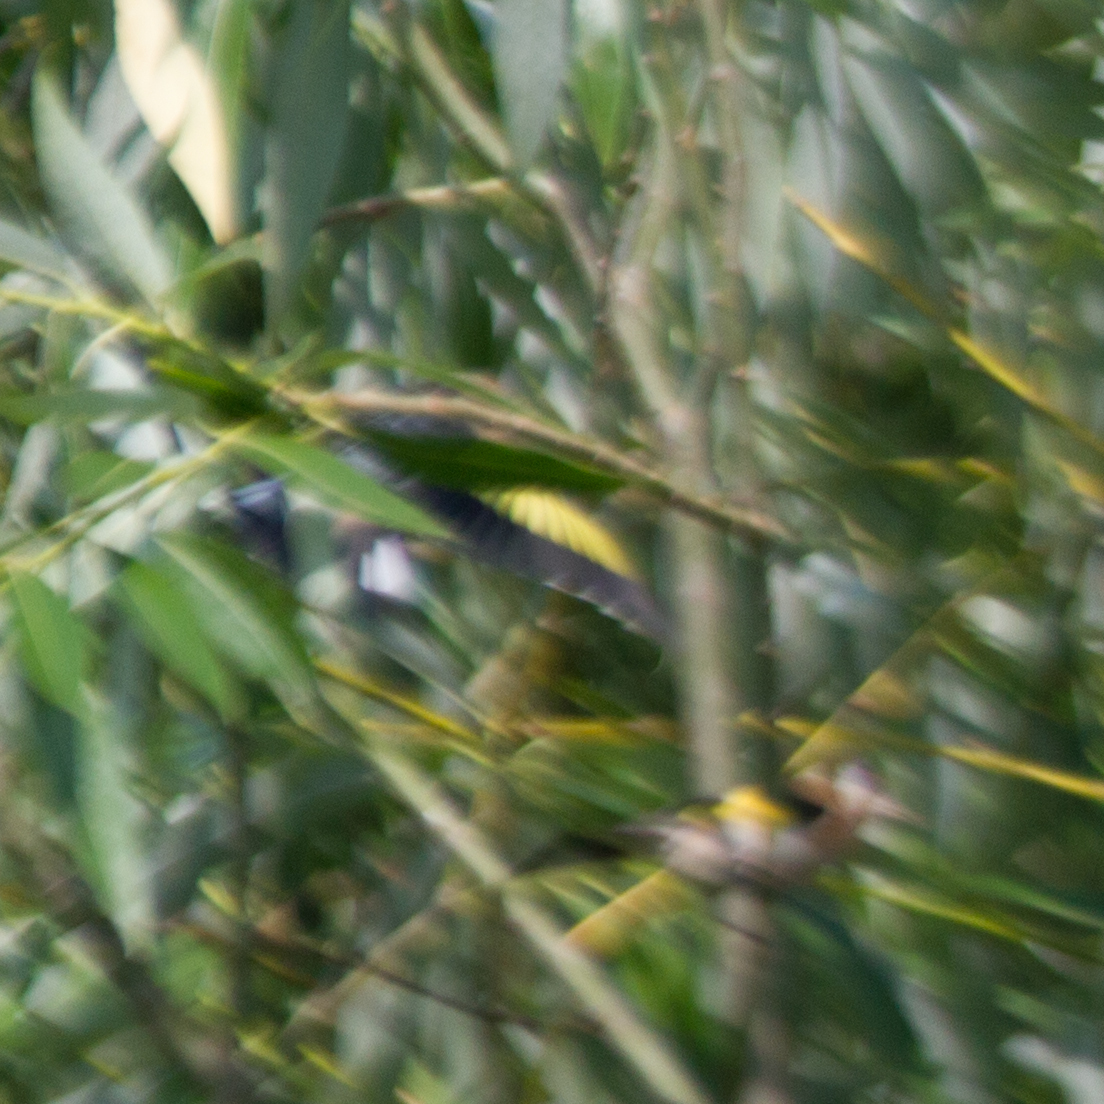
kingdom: Animalia
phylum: Chordata
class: Aves
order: Passeriformes
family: Fringillidae
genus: Carduelis
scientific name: Carduelis carduelis
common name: European goldfinch
